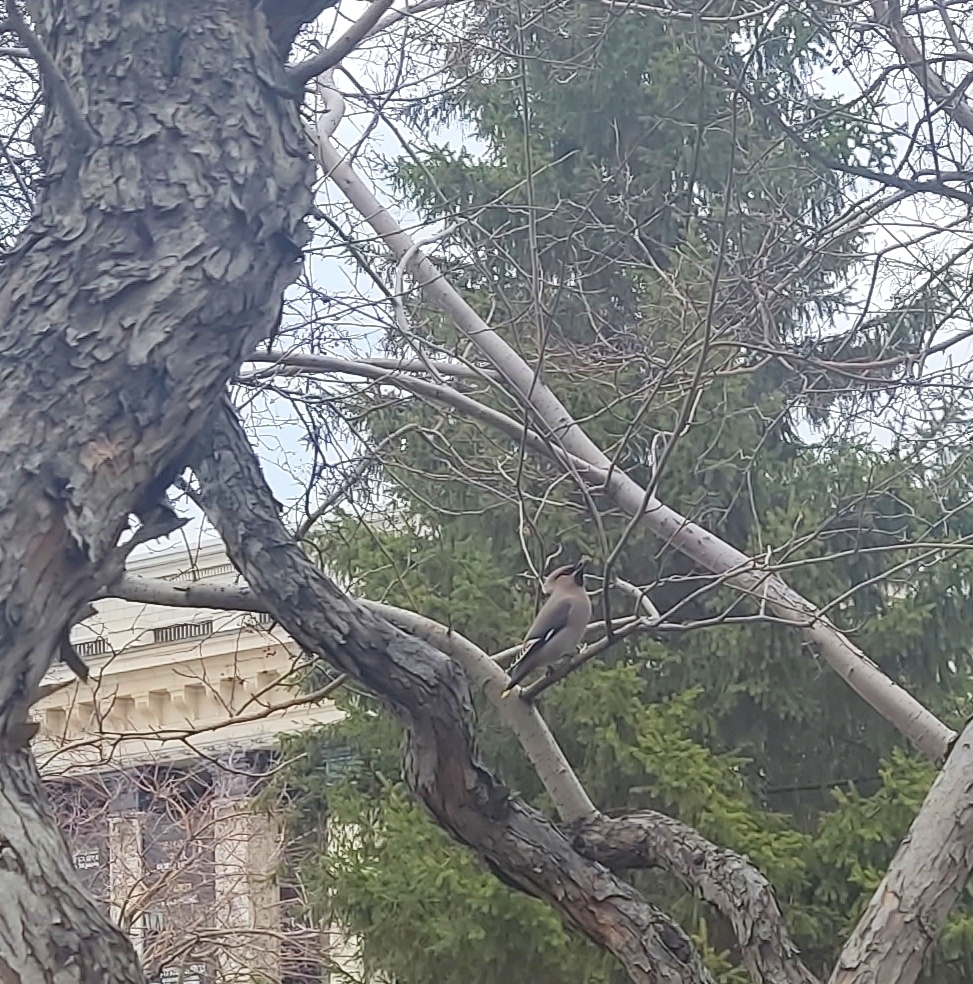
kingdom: Animalia
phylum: Chordata
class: Aves
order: Passeriformes
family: Bombycillidae
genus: Bombycilla
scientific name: Bombycilla garrulus
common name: Bohemian waxwing
